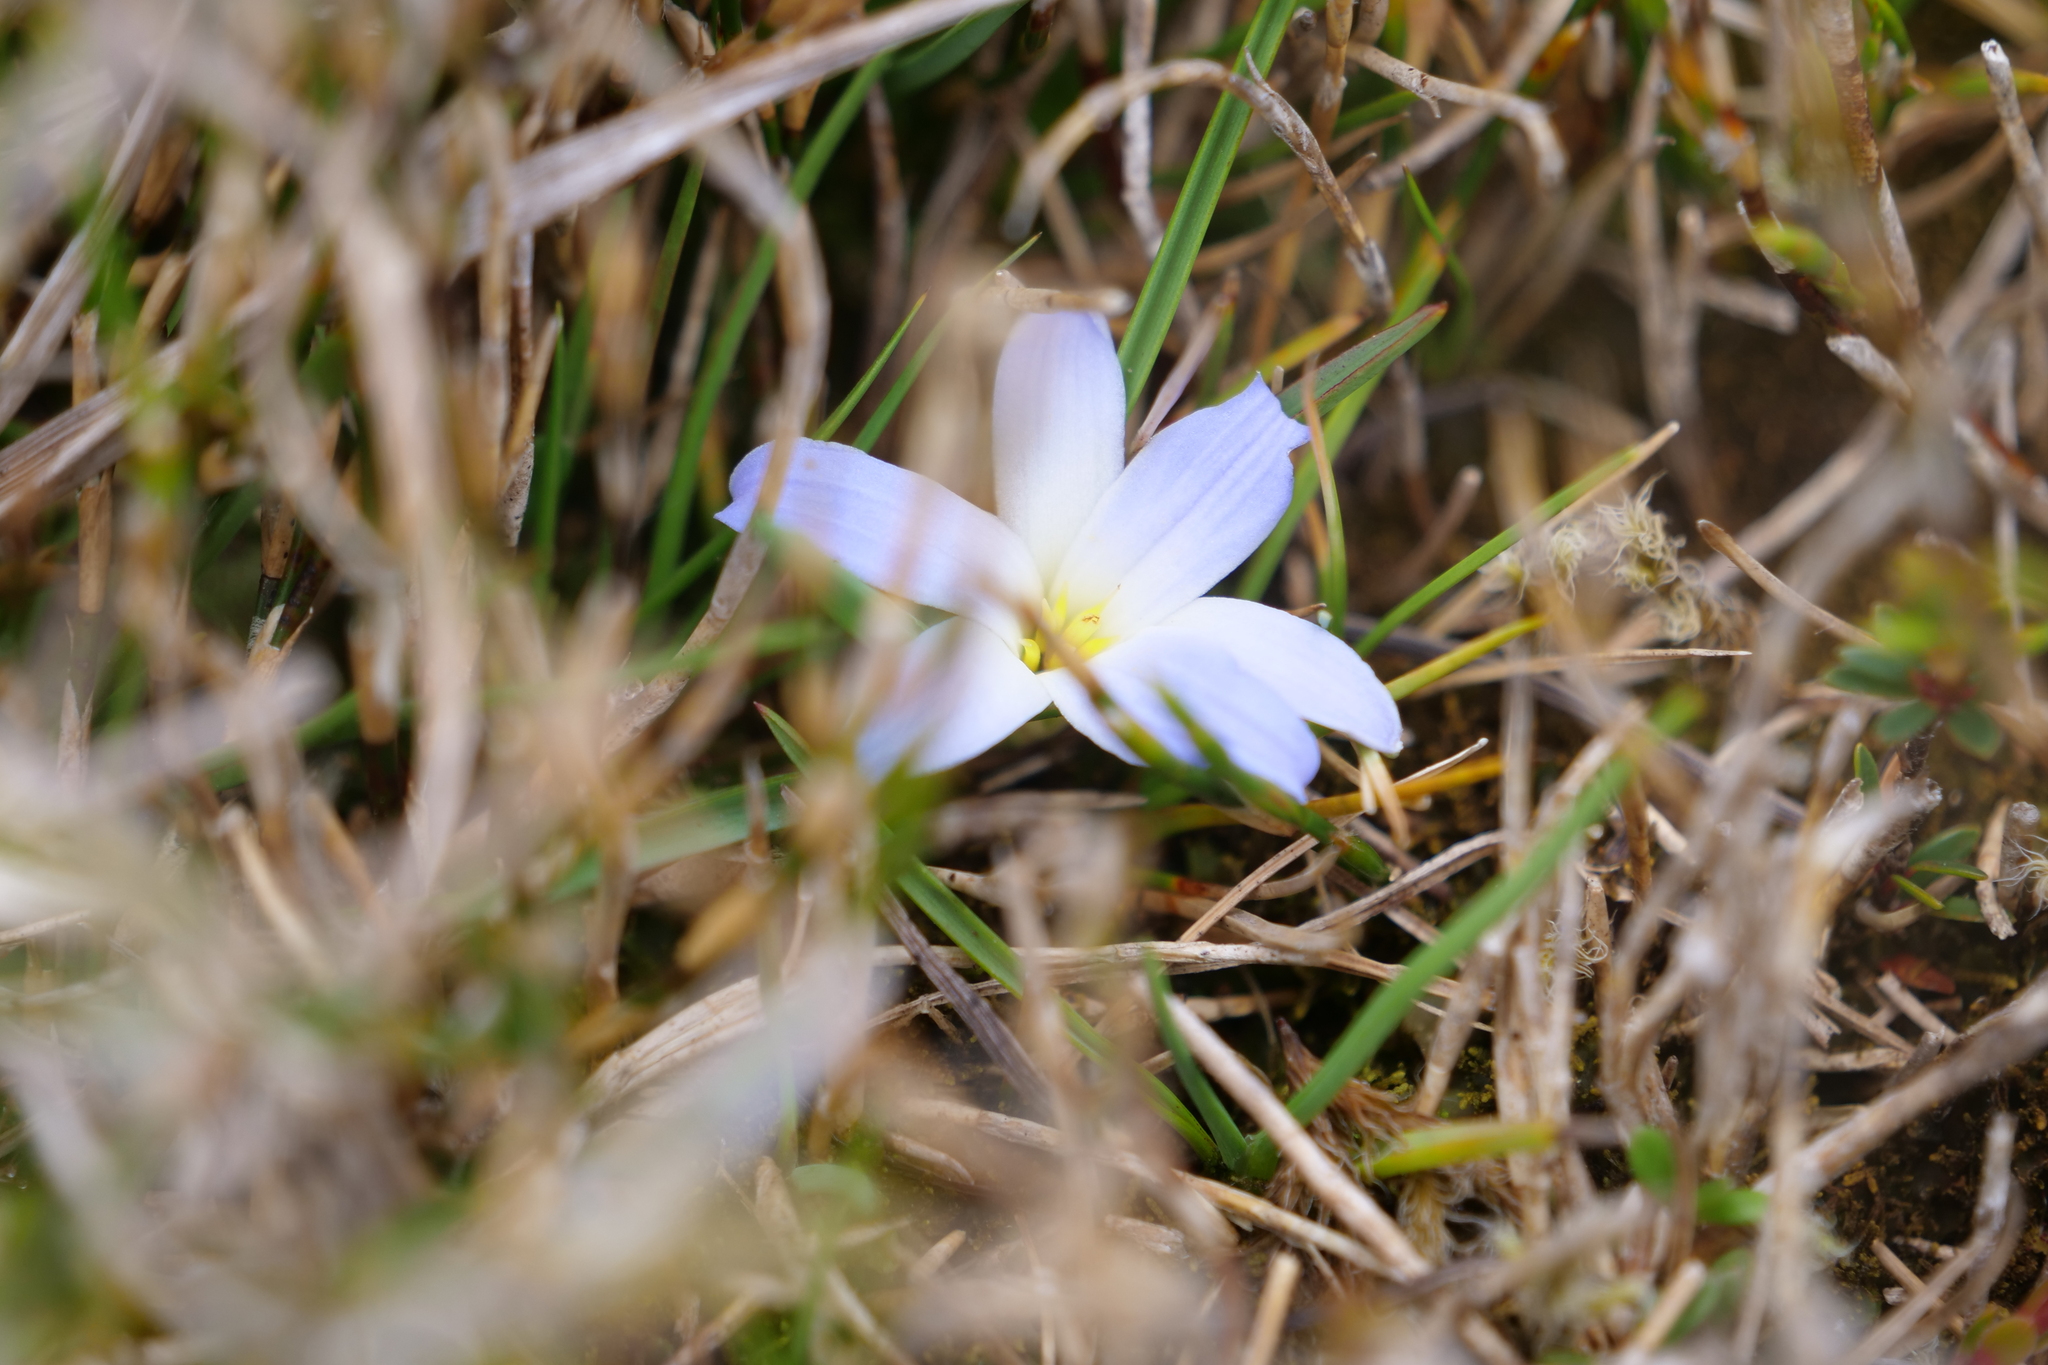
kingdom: Plantae
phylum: Tracheophyta
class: Liliopsida
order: Asparagales
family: Asphodelaceae
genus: Herpolirion
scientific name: Herpolirion novae-zelandiae
